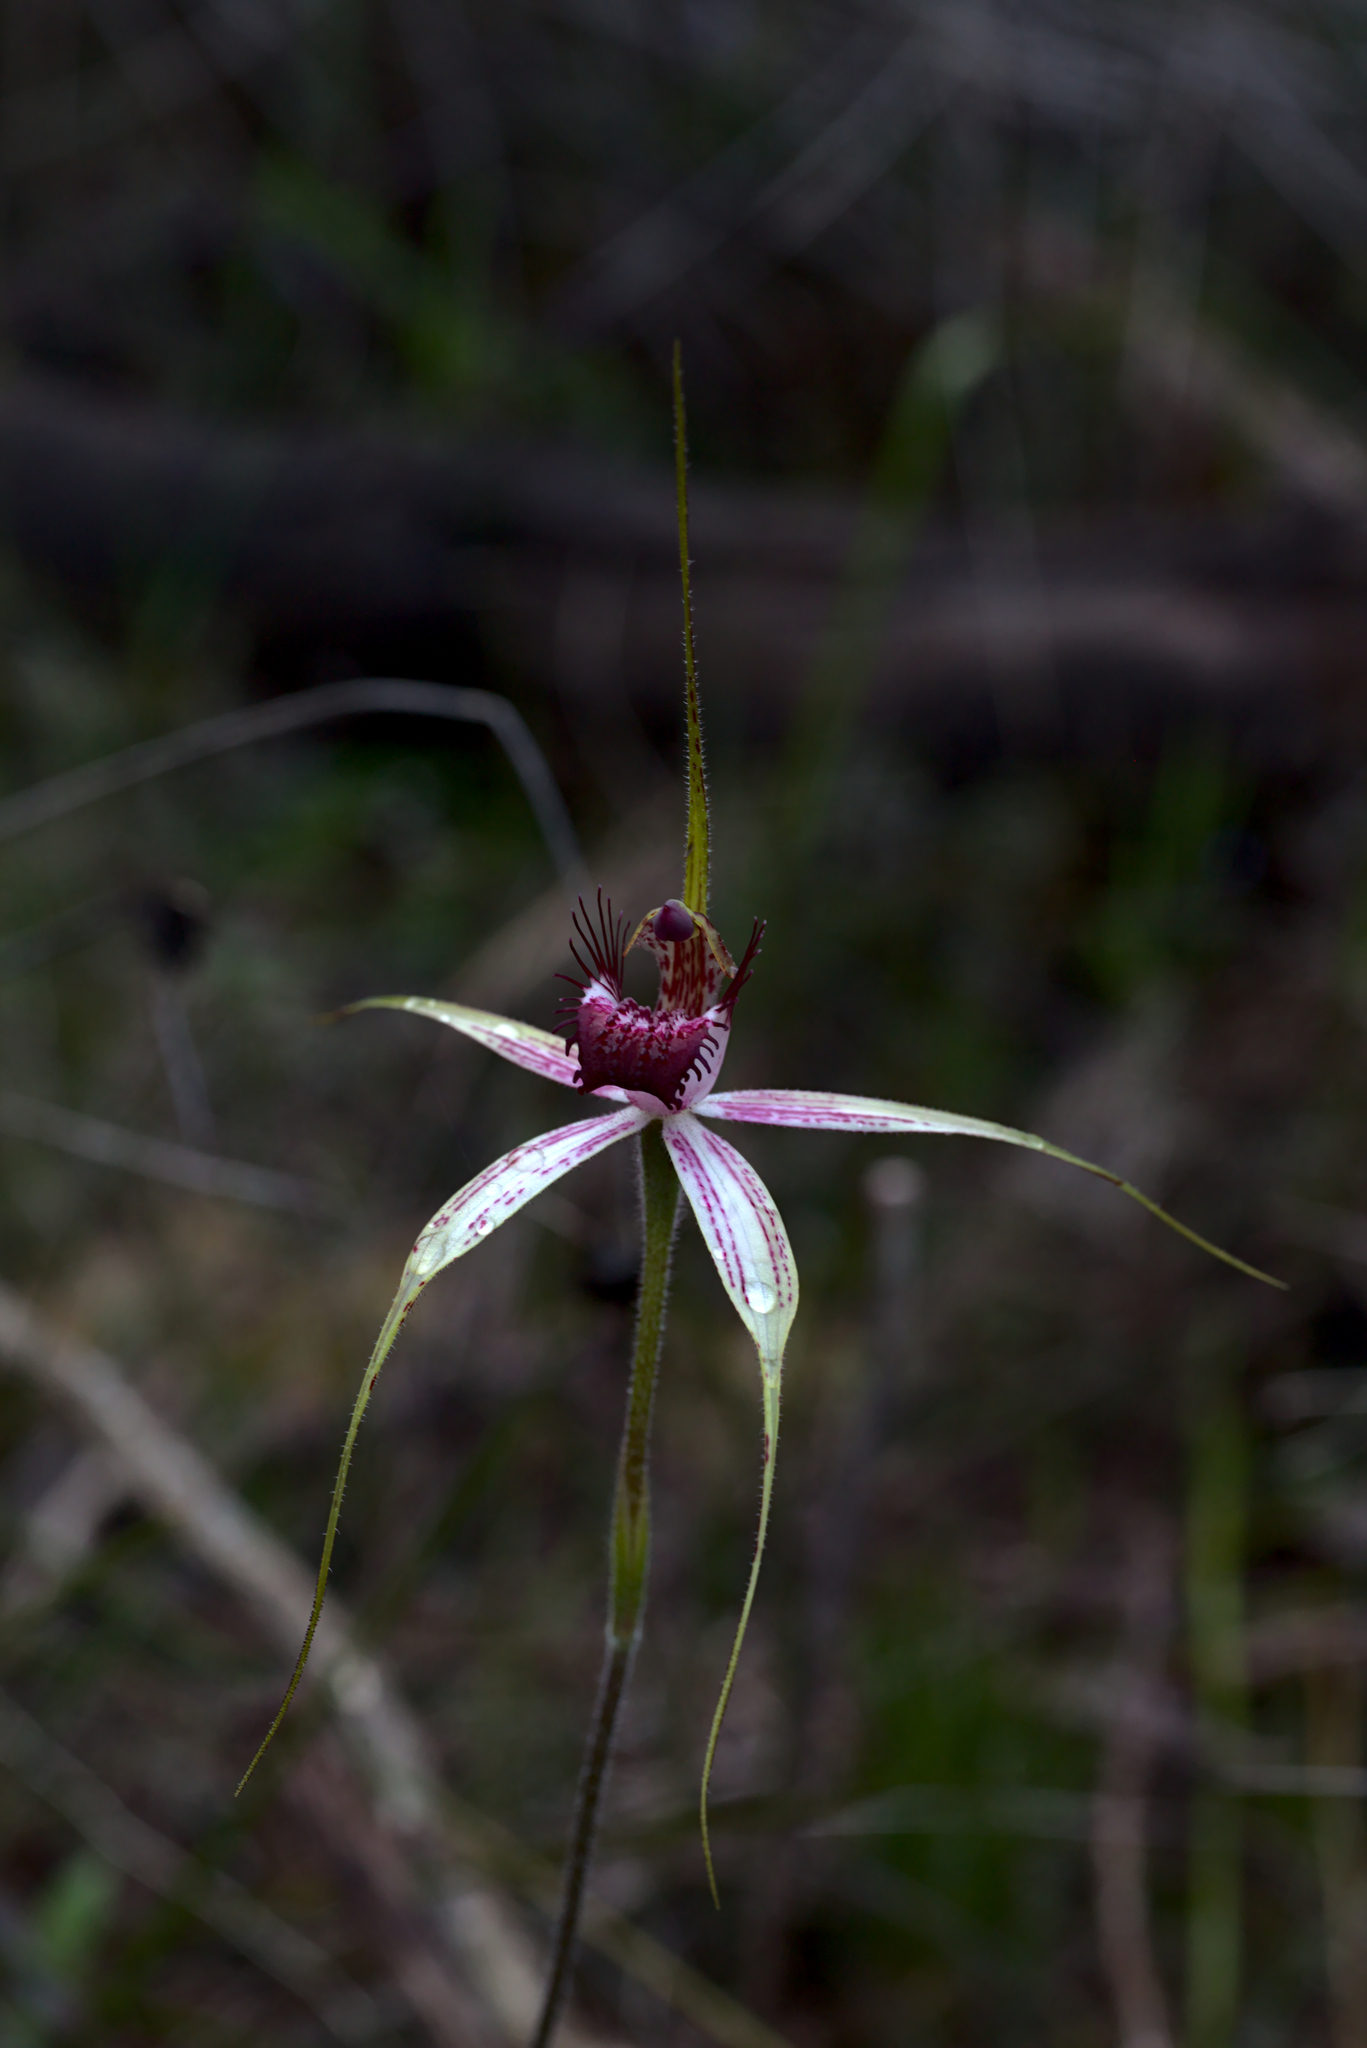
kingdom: Plantae
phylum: Tracheophyta
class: Liliopsida
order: Asparagales
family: Orchidaceae
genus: Caladenia
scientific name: Caladenia arenicola
